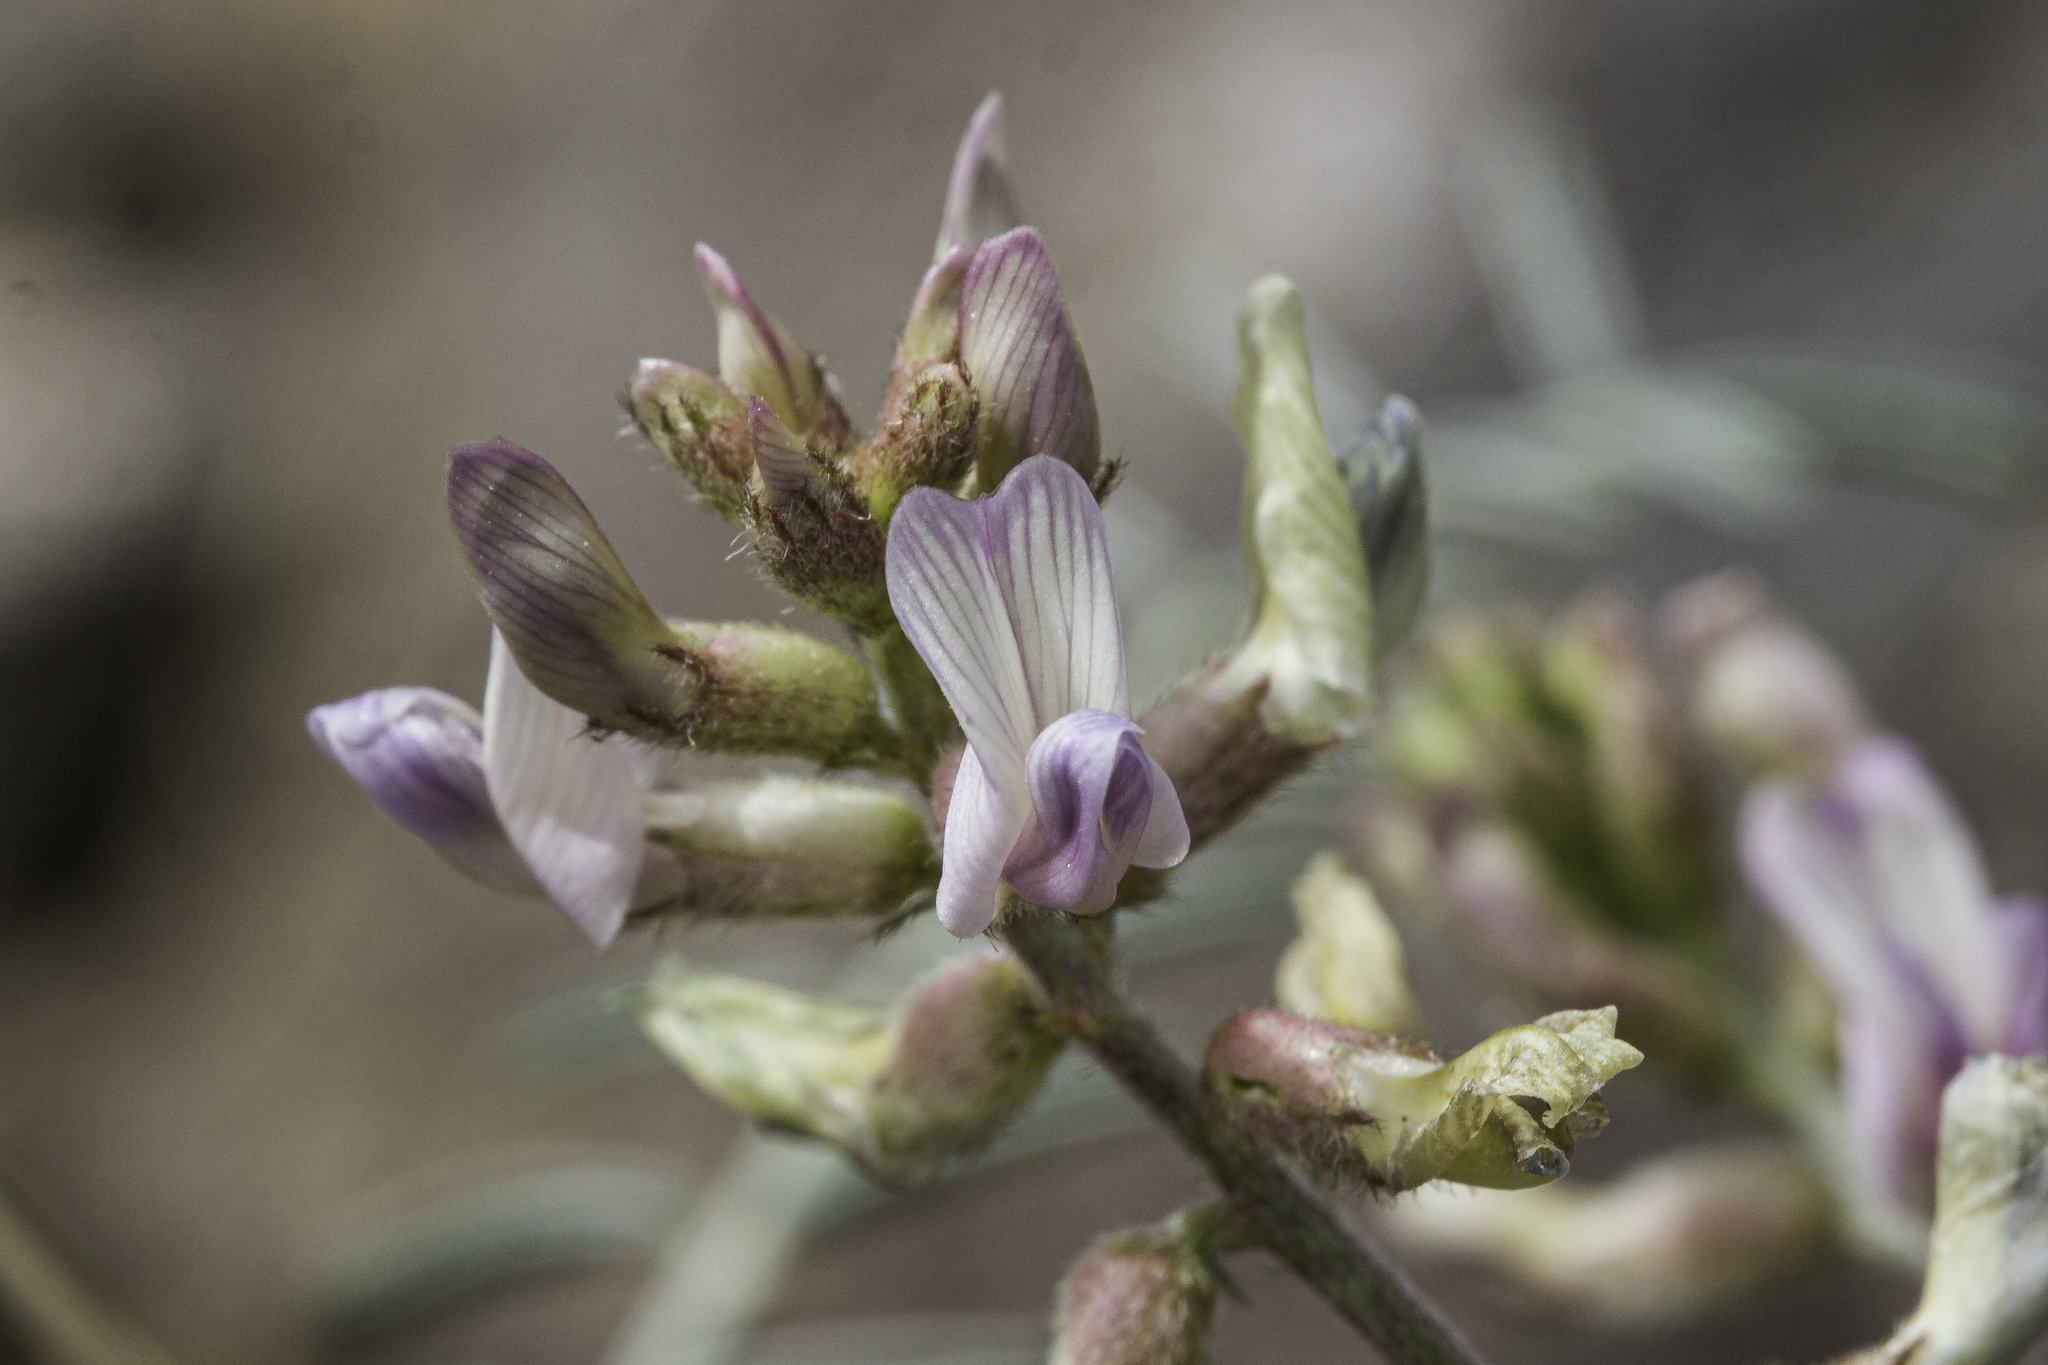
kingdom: Plantae
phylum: Tracheophyta
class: Magnoliopsida
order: Fabales
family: Fabaceae
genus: Astragalus
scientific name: Astragalus flexuosus
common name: Pliant milk-vetch
